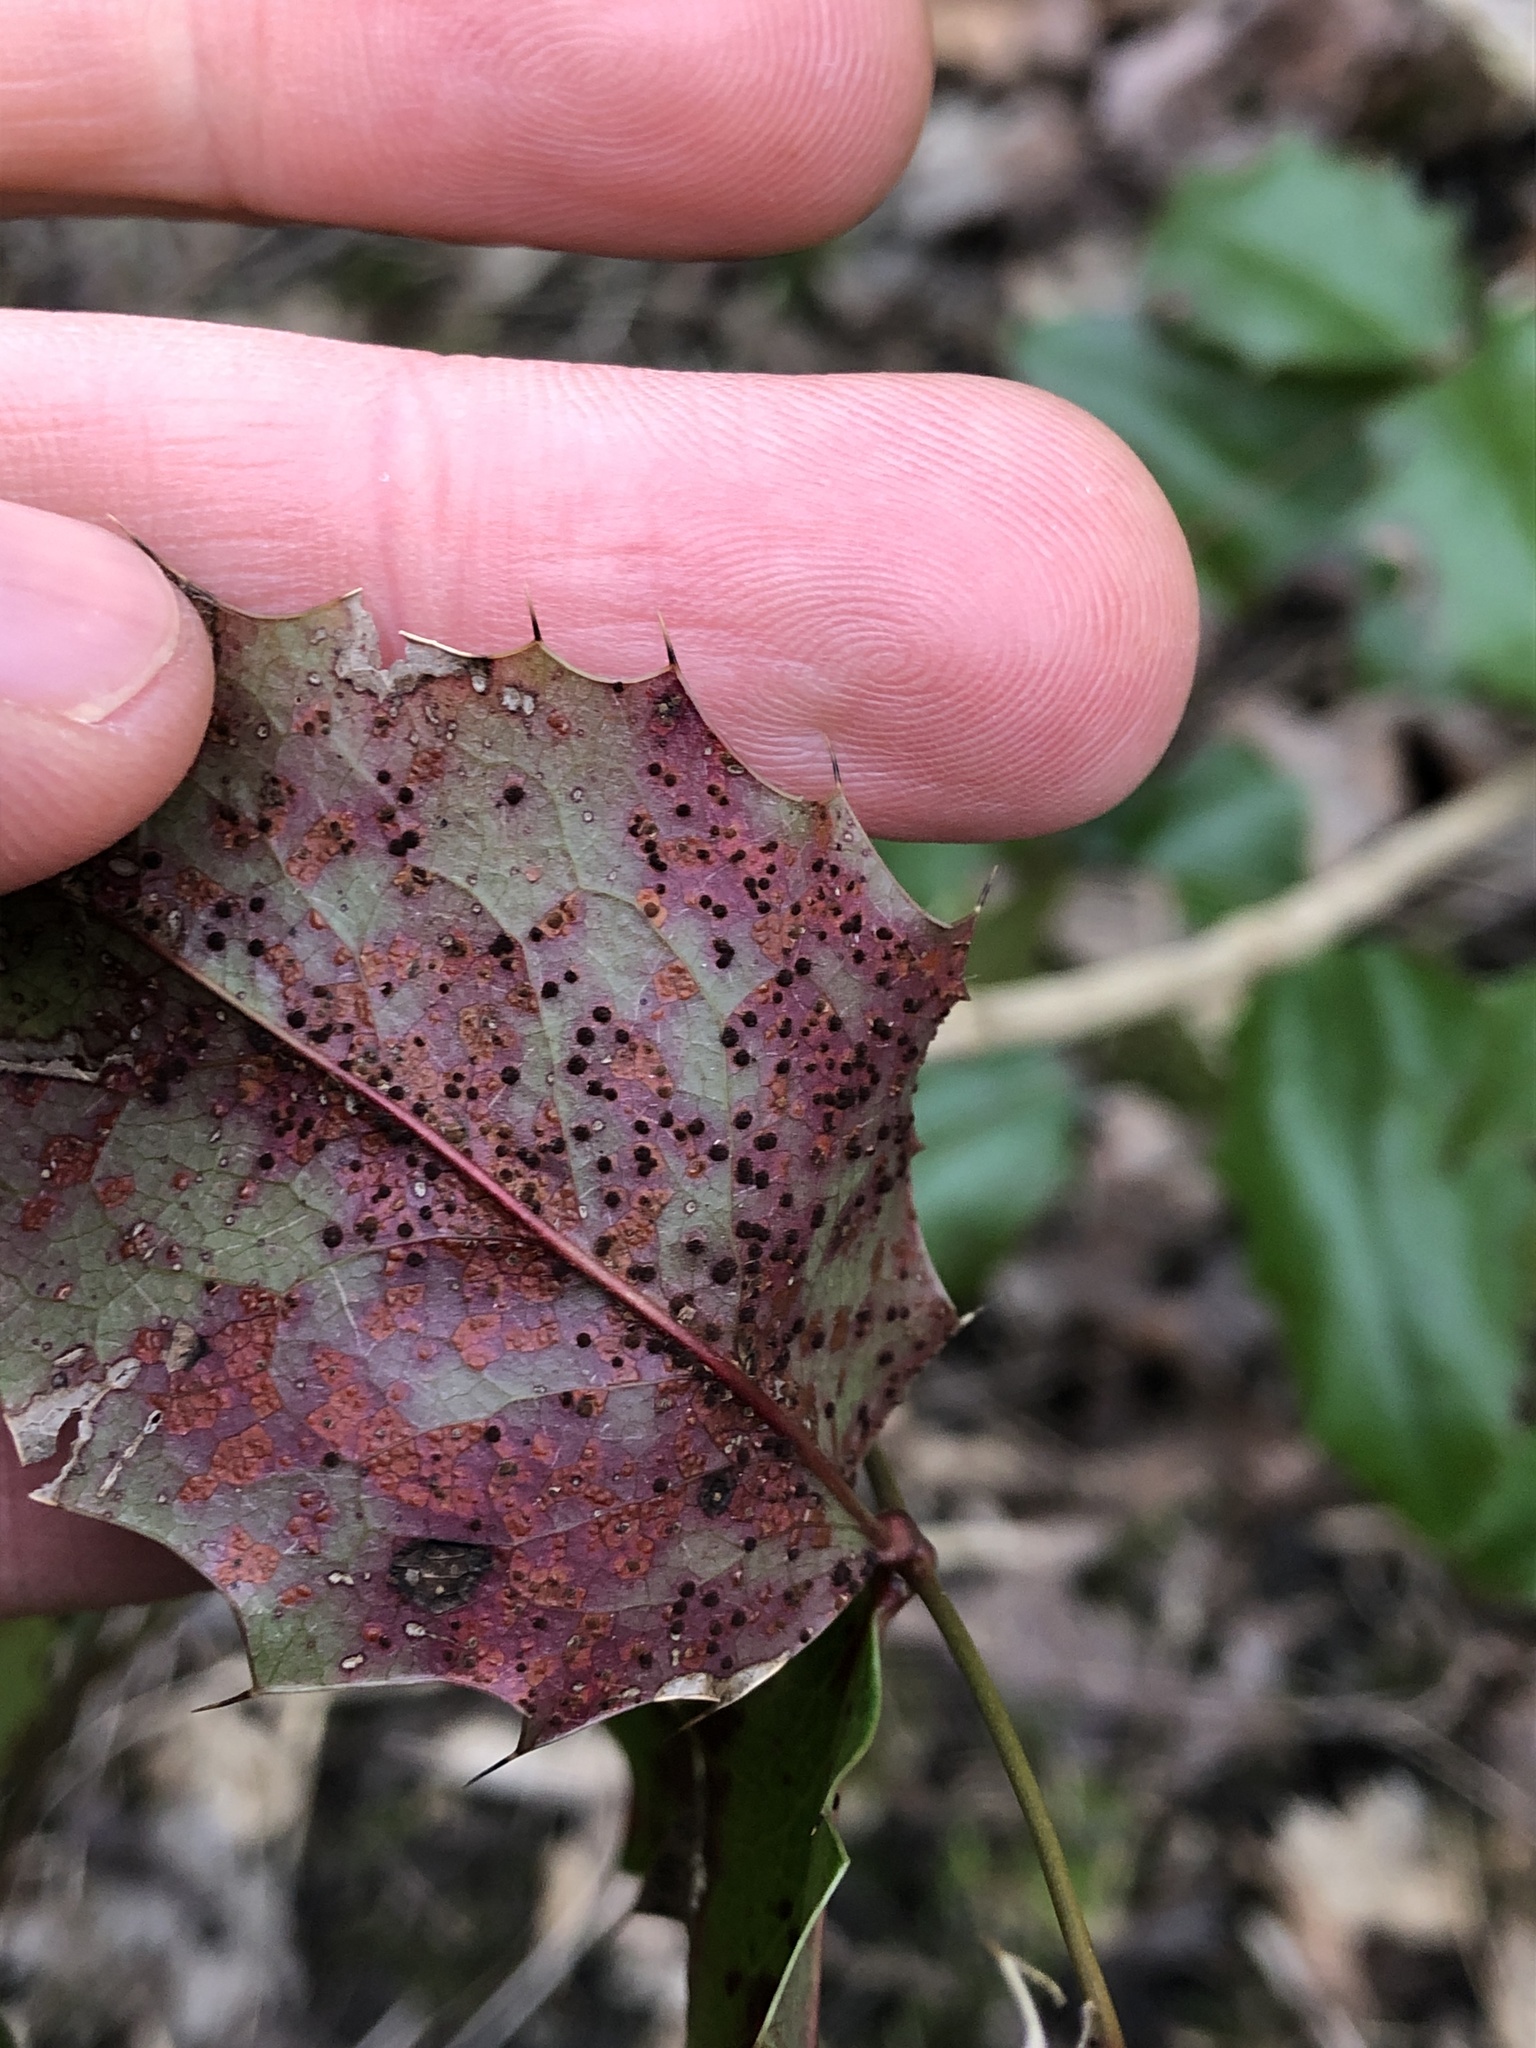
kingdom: Fungi
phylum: Basidiomycota
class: Pucciniomycetes
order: Pucciniales
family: Pucciniaceae
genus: Cumminsiella
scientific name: Cumminsiella mirabilissima
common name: Mahonia rust
